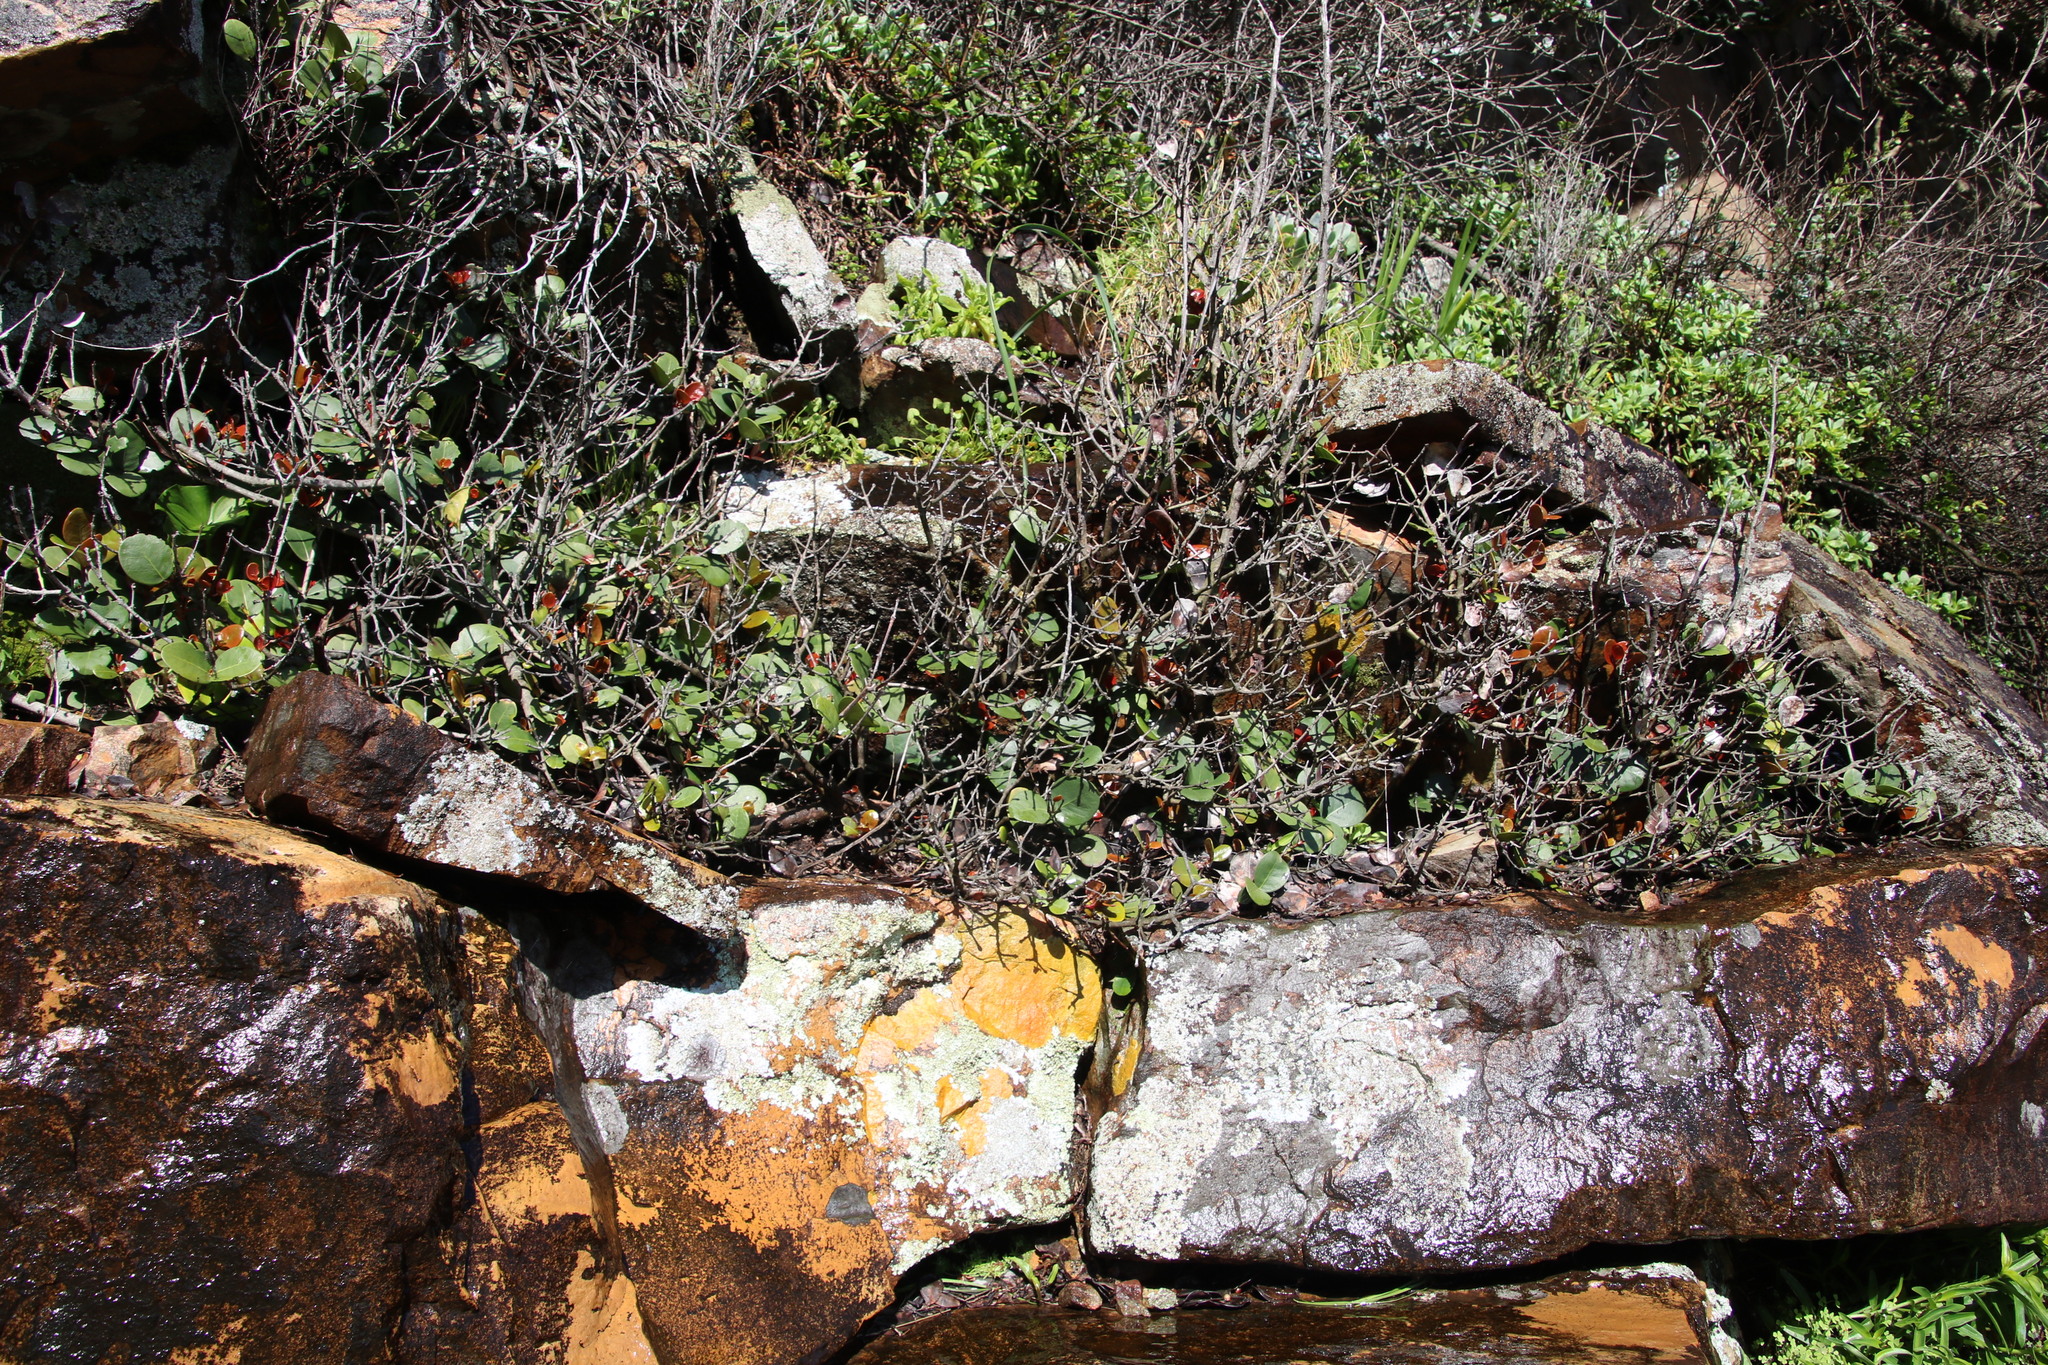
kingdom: Plantae
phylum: Tracheophyta
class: Magnoliopsida
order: Celastrales
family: Celastraceae
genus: Maurocenia
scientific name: Maurocenia frangula
